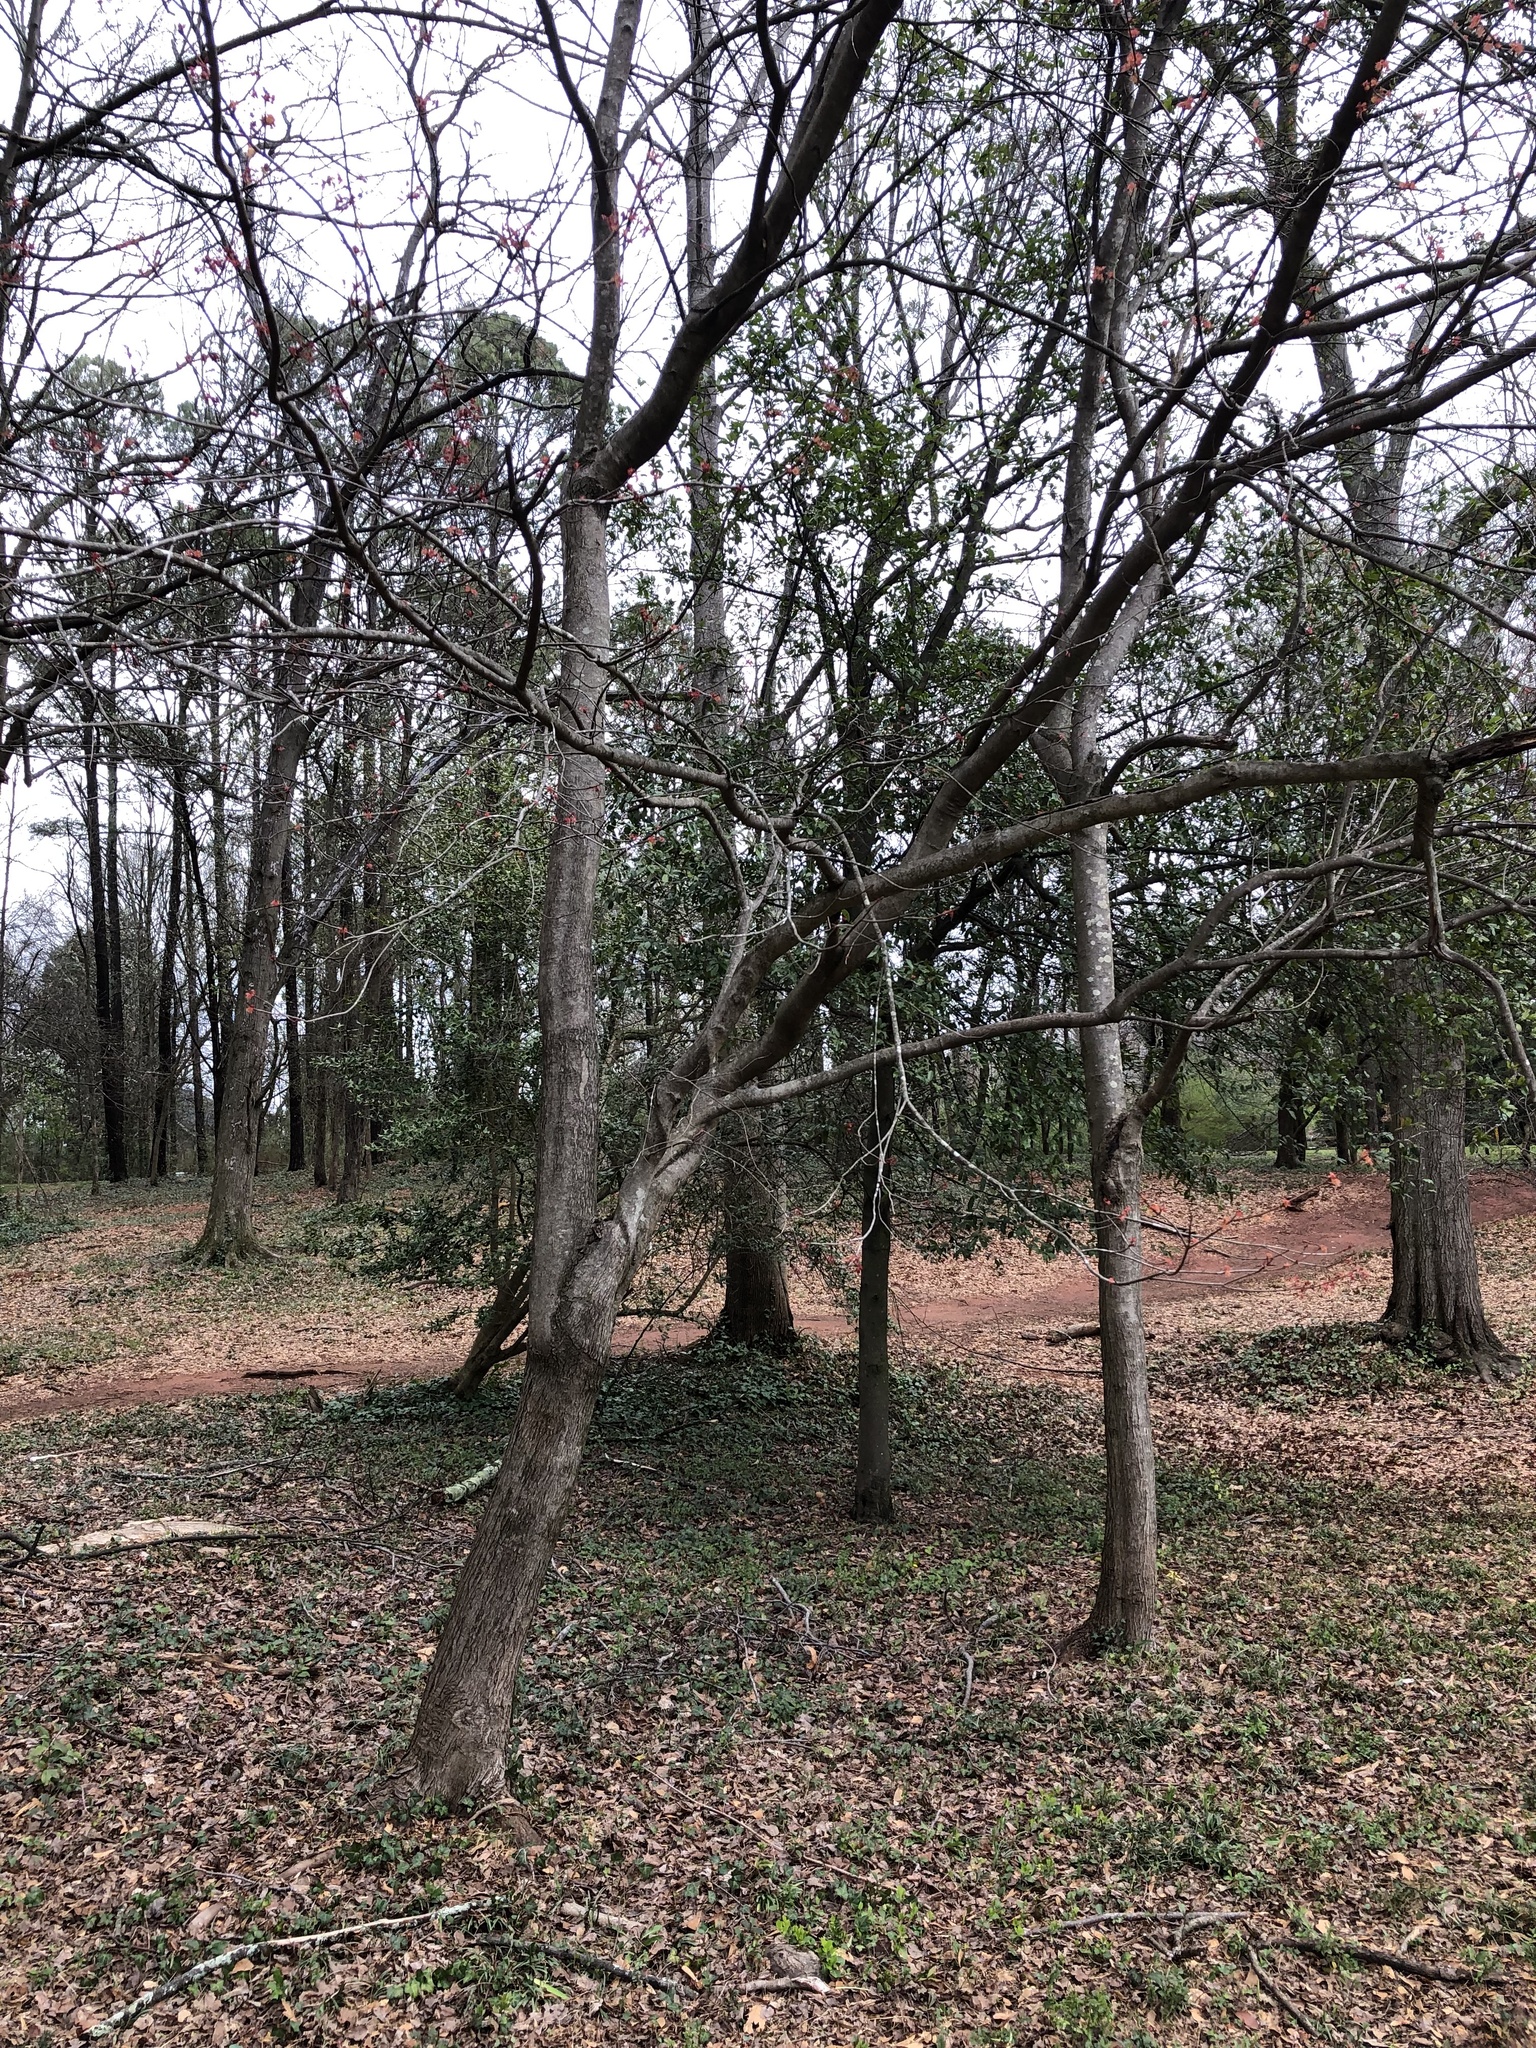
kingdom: Plantae
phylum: Tracheophyta
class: Magnoliopsida
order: Sapindales
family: Sapindaceae
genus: Acer
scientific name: Acer rubrum
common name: Red maple
